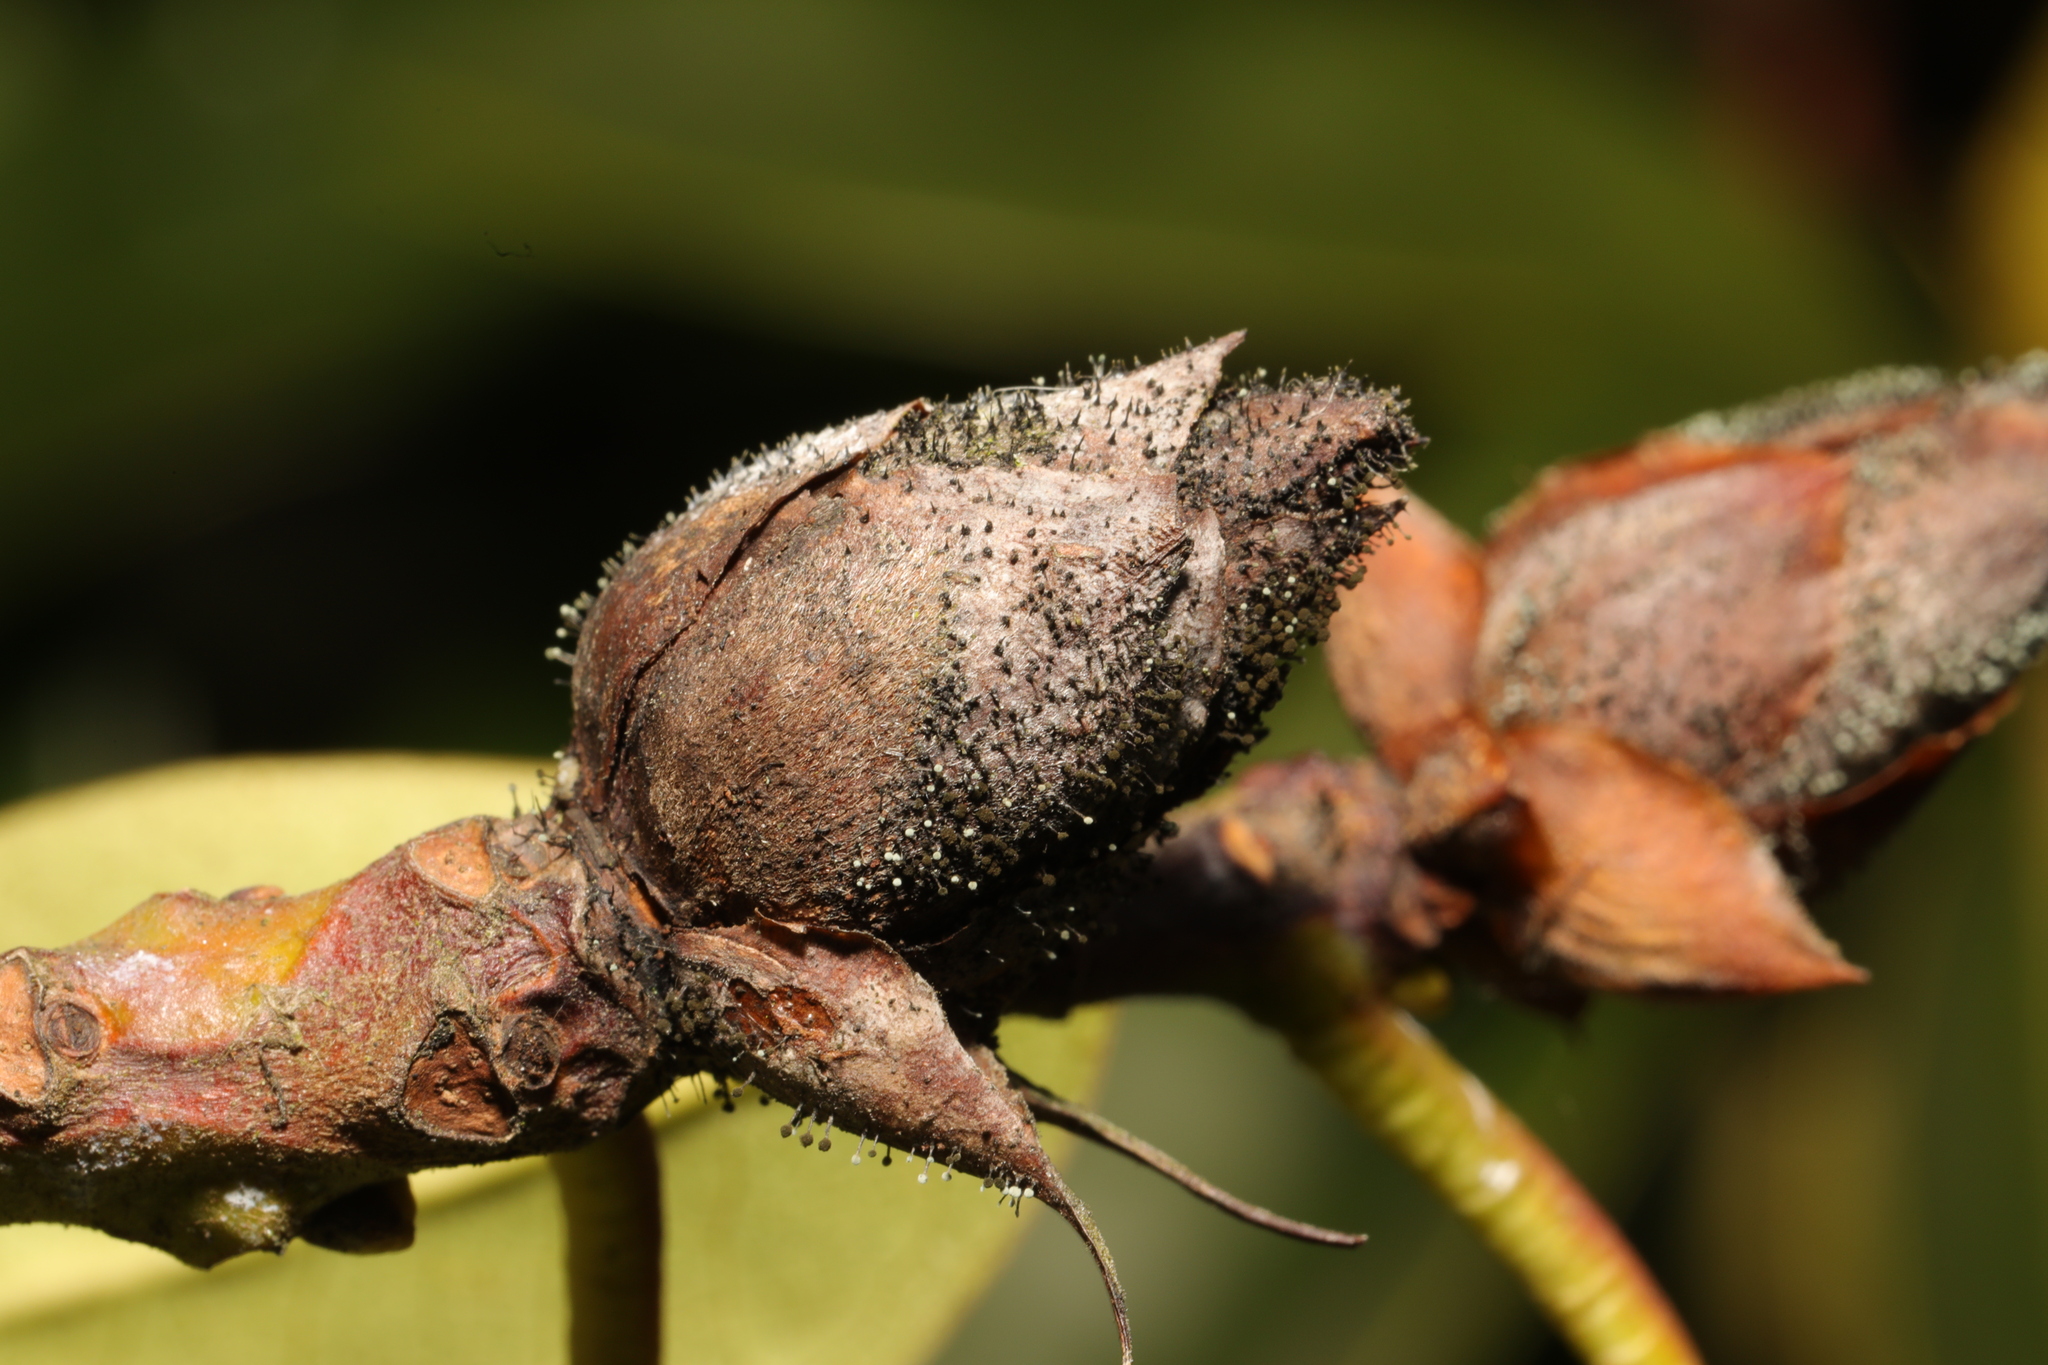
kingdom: Fungi
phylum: Ascomycota
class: Dothideomycetes
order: Pleosporales
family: Melanommataceae
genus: Seifertia
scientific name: Seifertia azaleae
